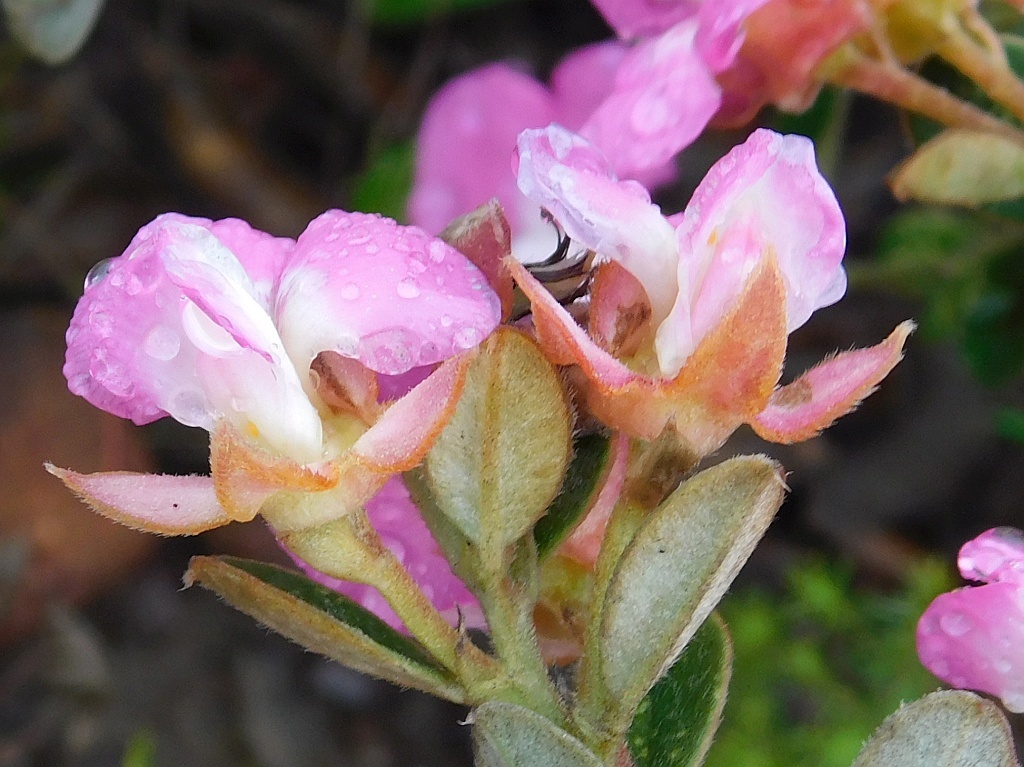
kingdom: Plantae
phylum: Tracheophyta
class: Magnoliopsida
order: Fabales
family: Fabaceae
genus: Podalyria
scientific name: Podalyria biflora
